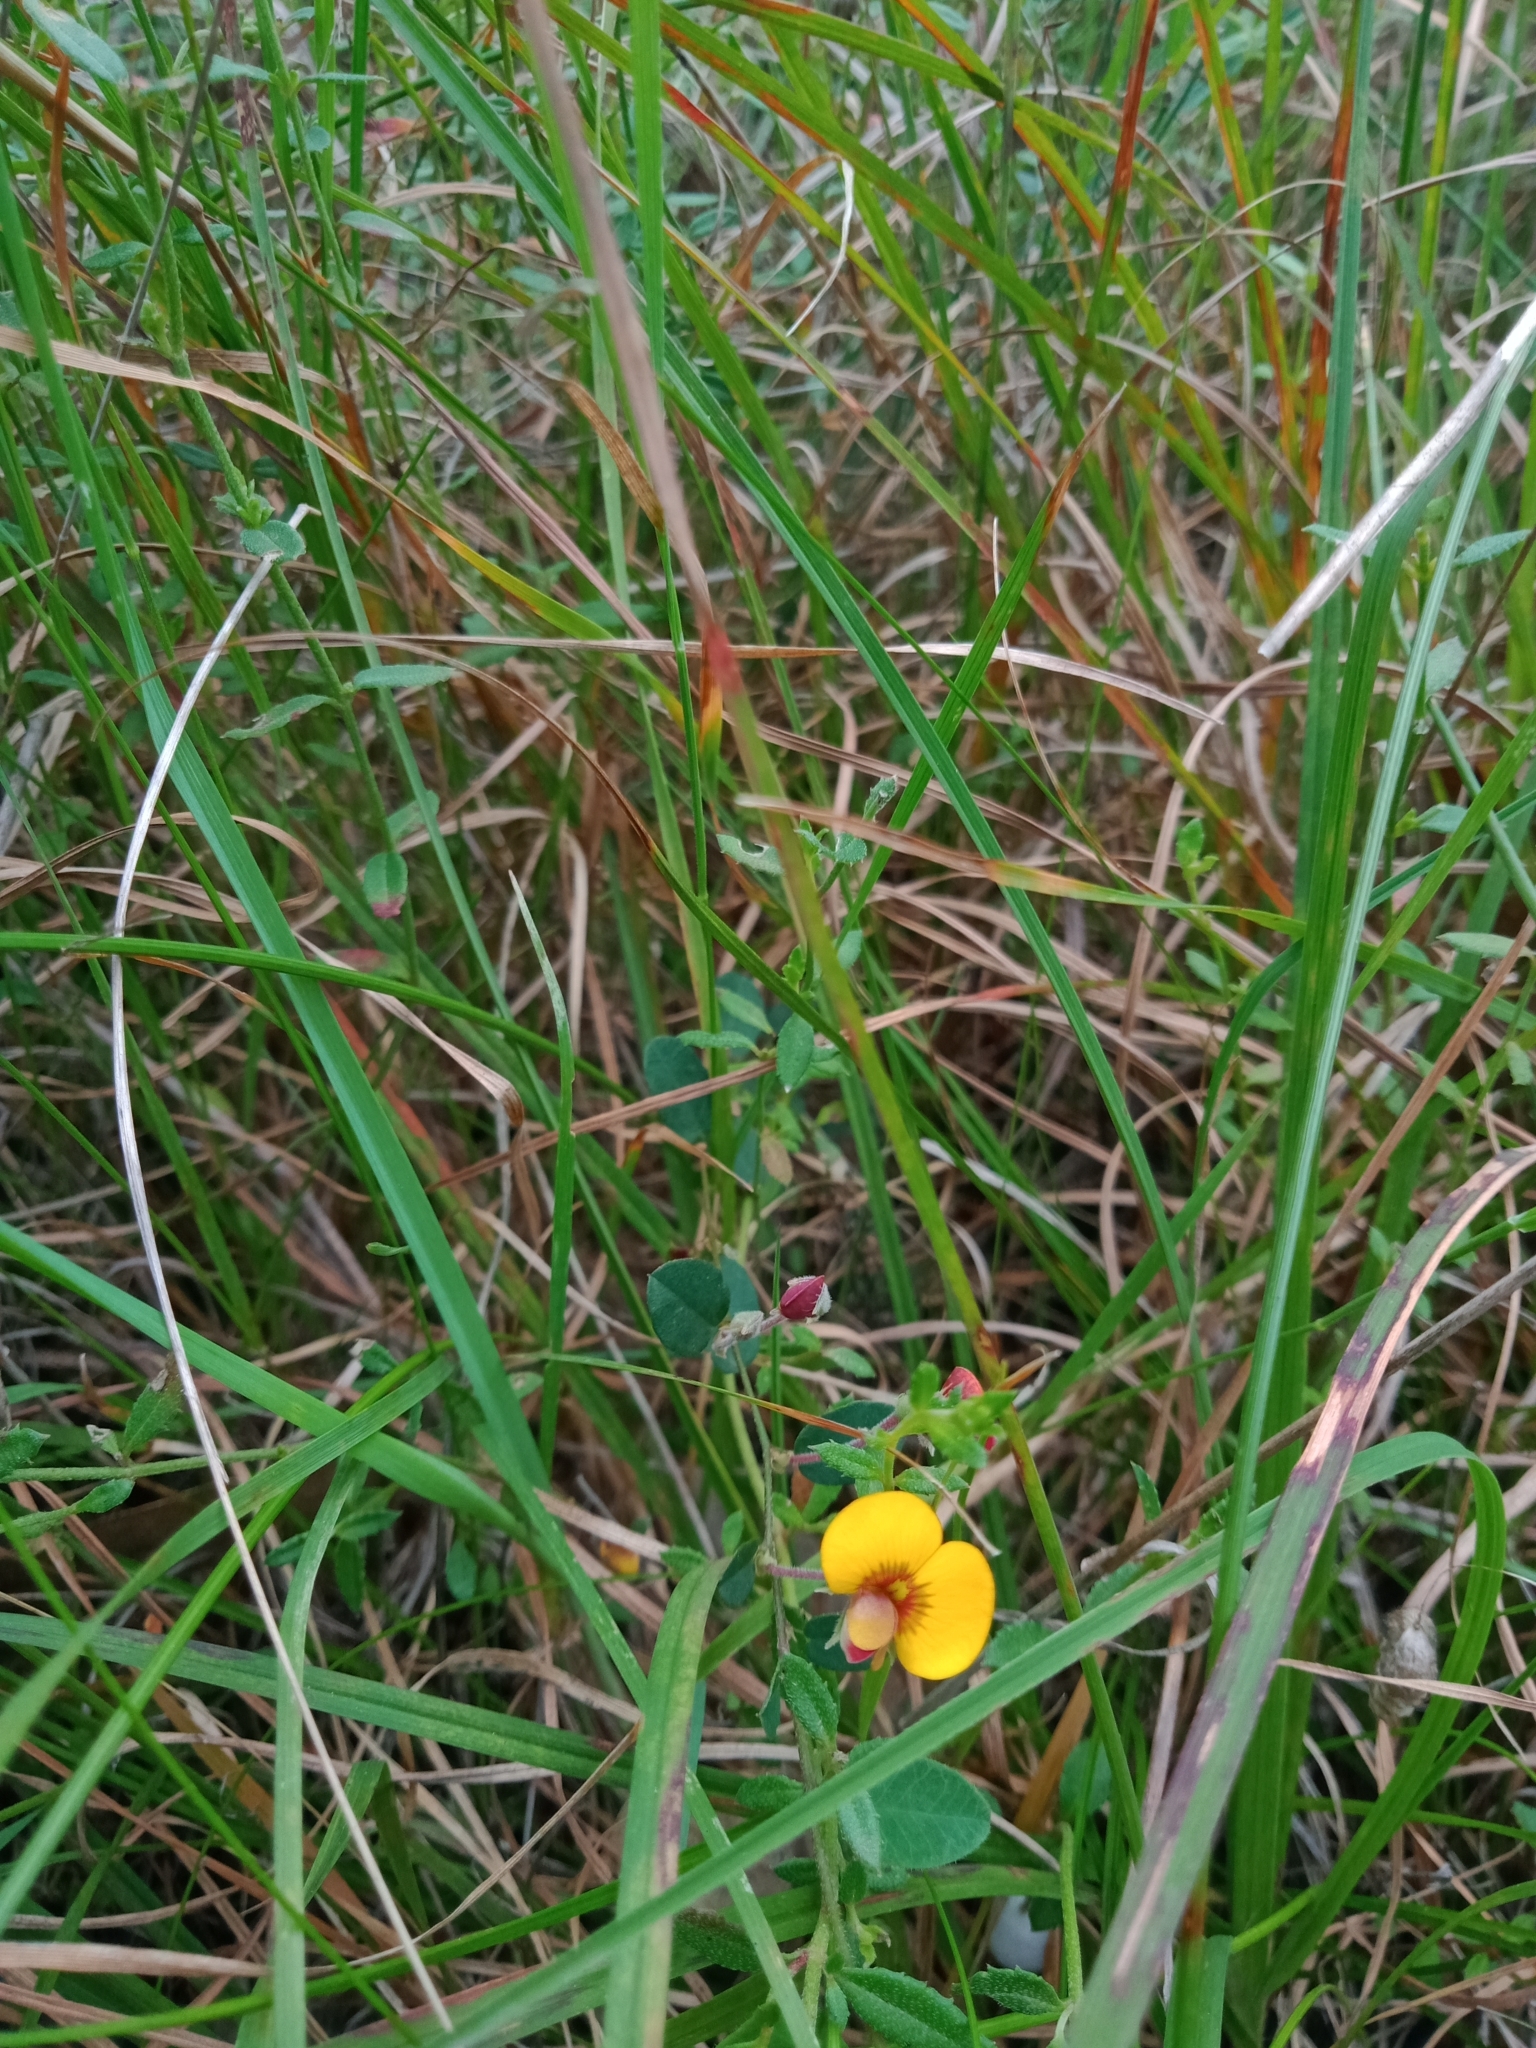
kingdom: Plantae
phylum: Tracheophyta
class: Magnoliopsida
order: Fabales
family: Fabaceae
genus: Bossiaea
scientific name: Bossiaea prostrata
